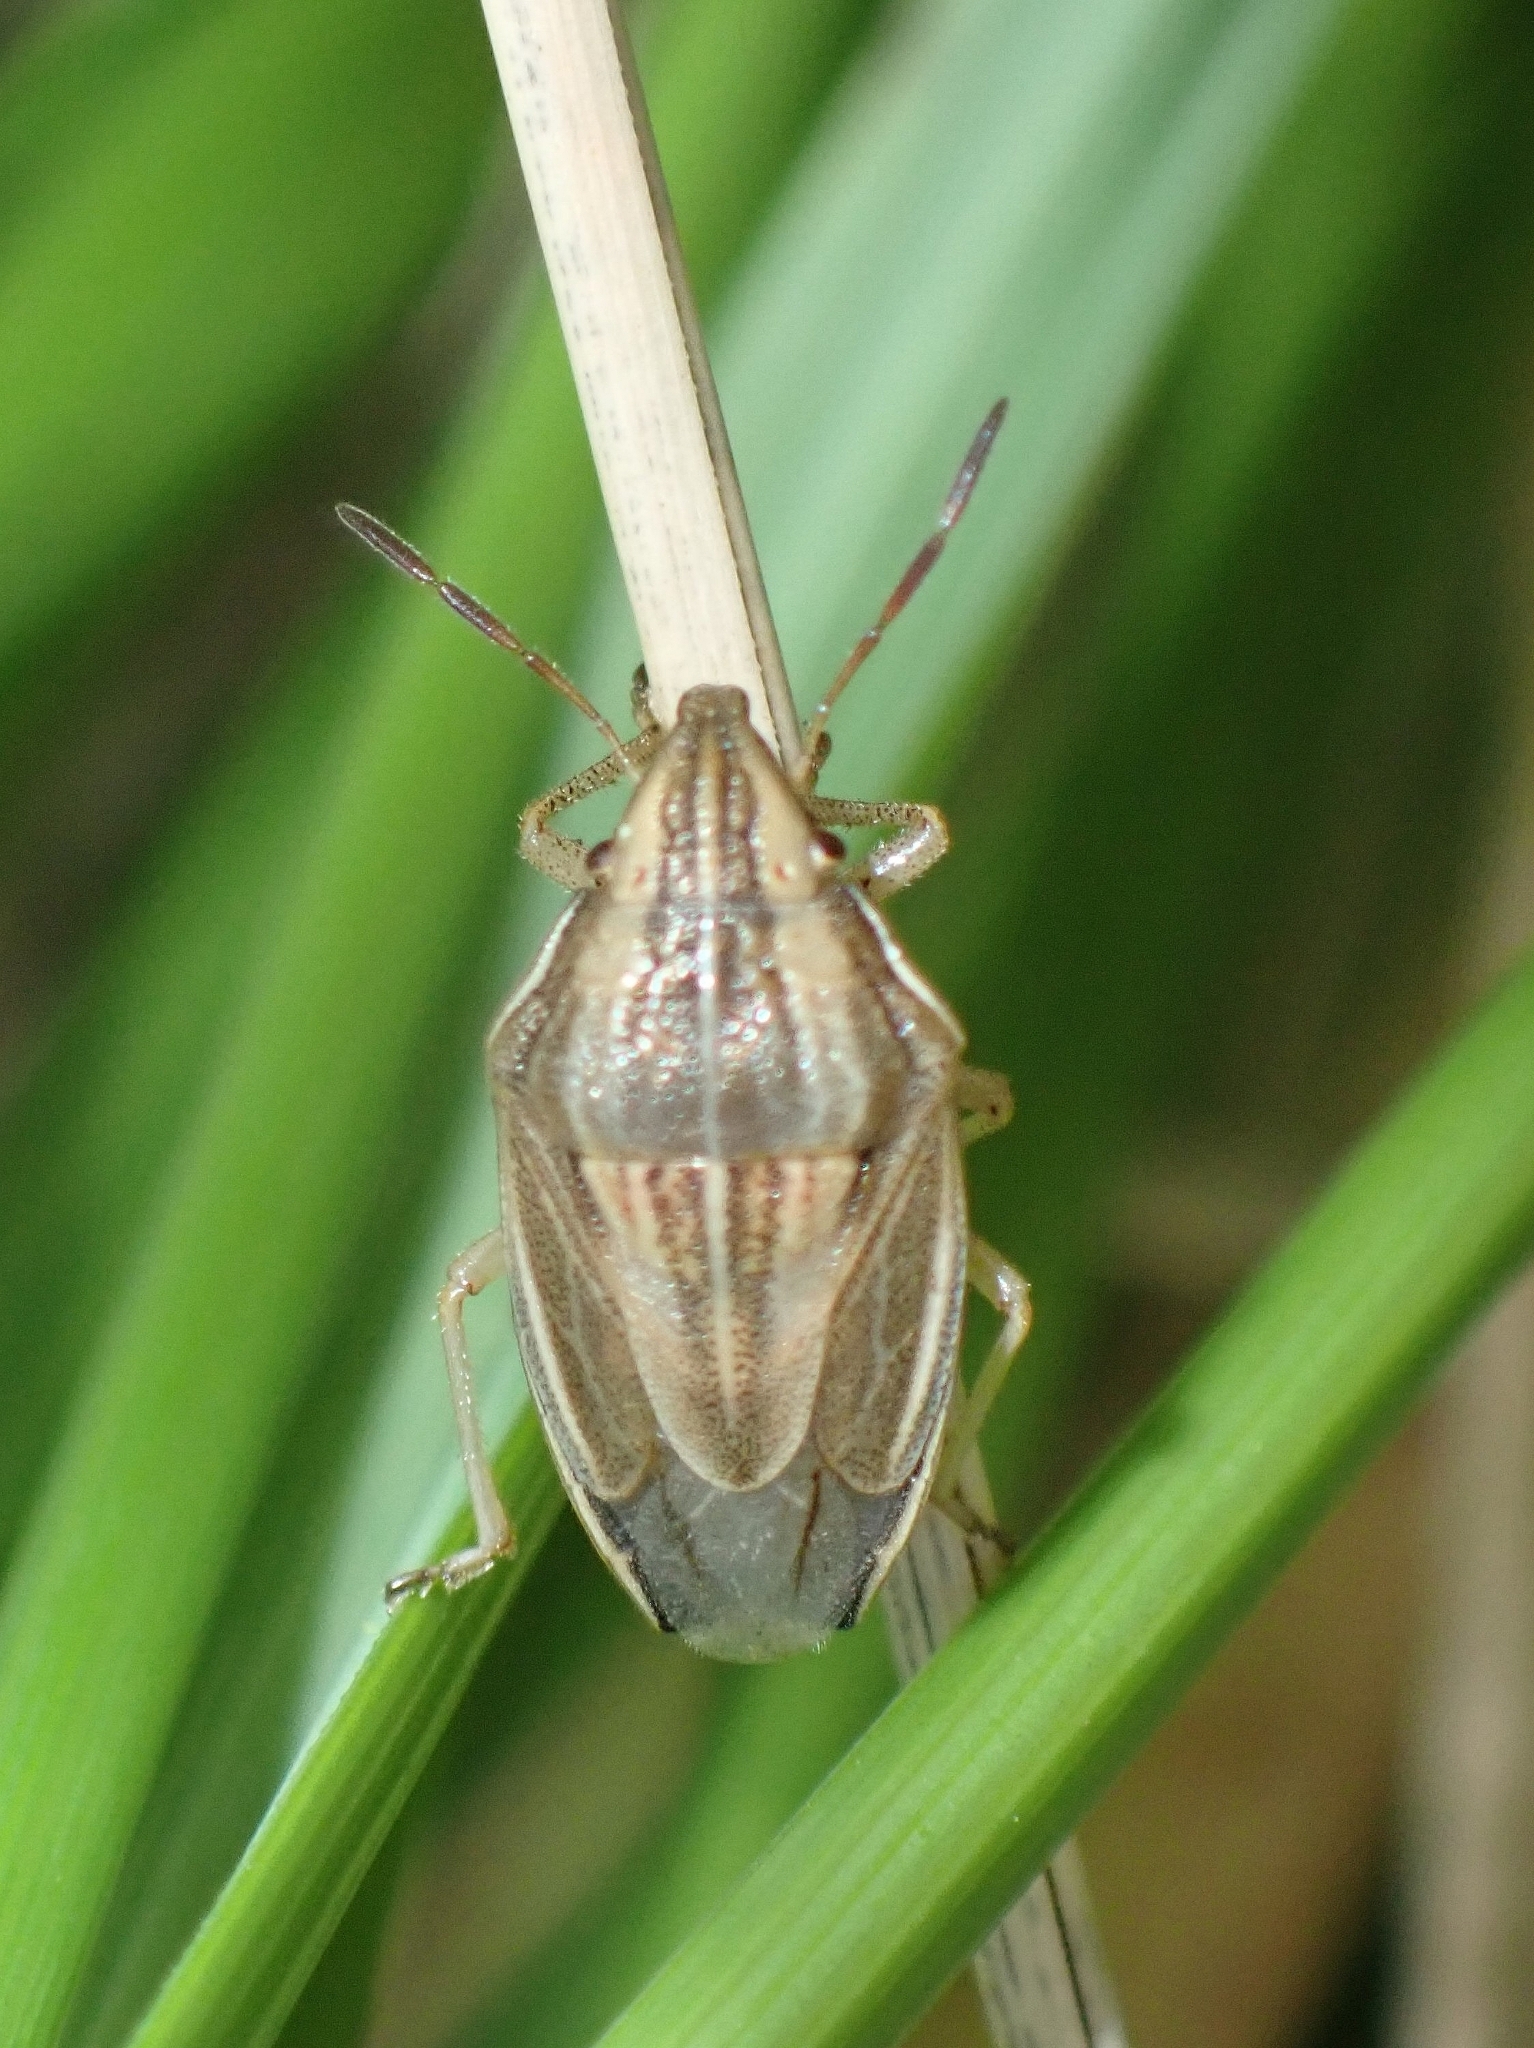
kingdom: Animalia
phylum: Arthropoda
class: Insecta
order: Hemiptera
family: Pentatomidae
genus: Aelia
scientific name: Aelia acuminata
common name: Bishop's mitre
